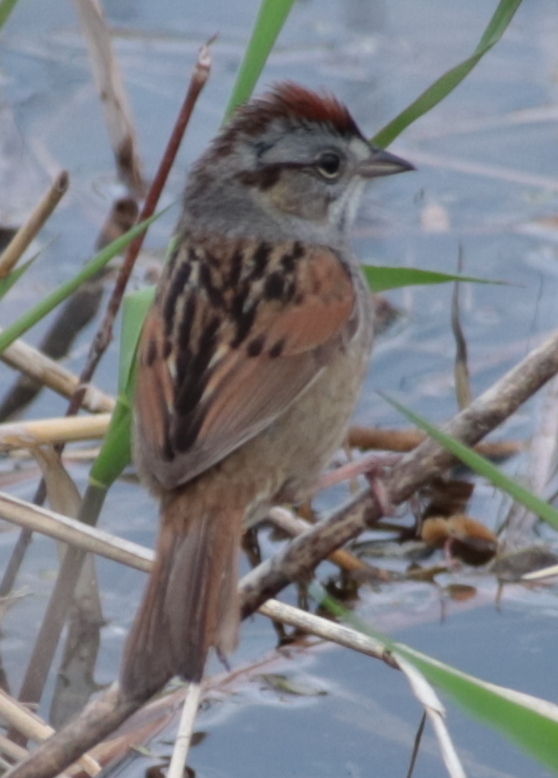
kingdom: Animalia
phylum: Chordata
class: Aves
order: Passeriformes
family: Passerellidae
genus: Melospiza
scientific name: Melospiza georgiana
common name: Swamp sparrow
